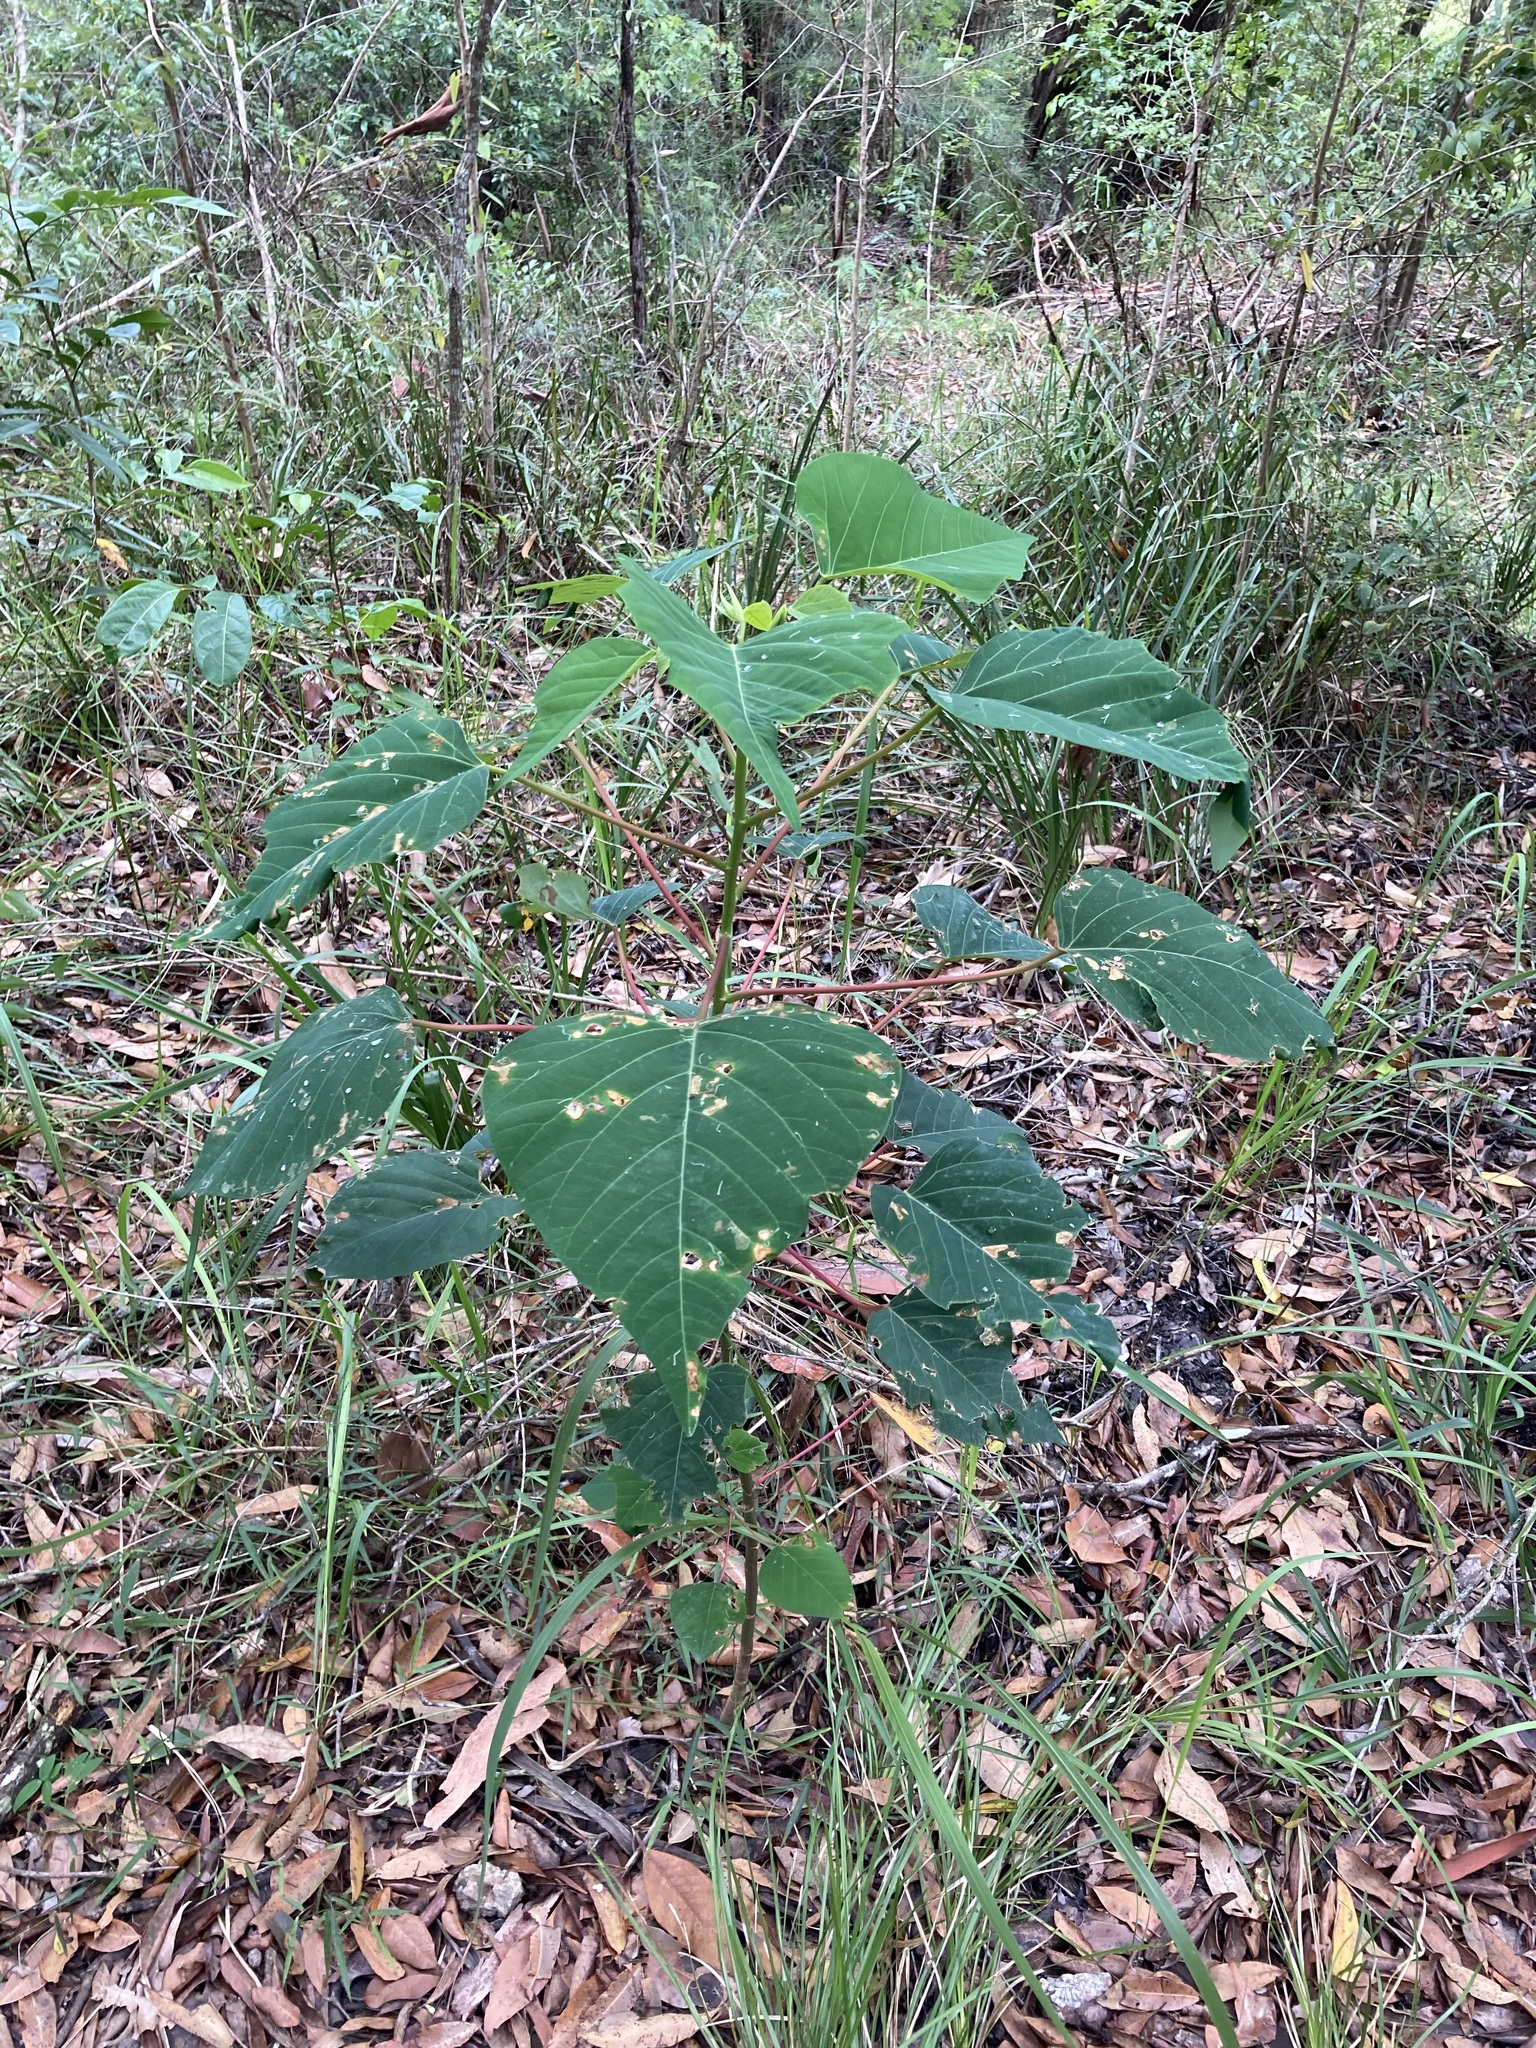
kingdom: Plantae
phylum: Tracheophyta
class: Magnoliopsida
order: Malpighiales
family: Euphorbiaceae
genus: Homalanthus
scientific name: Homalanthus populifolius
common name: Queensland poplar
